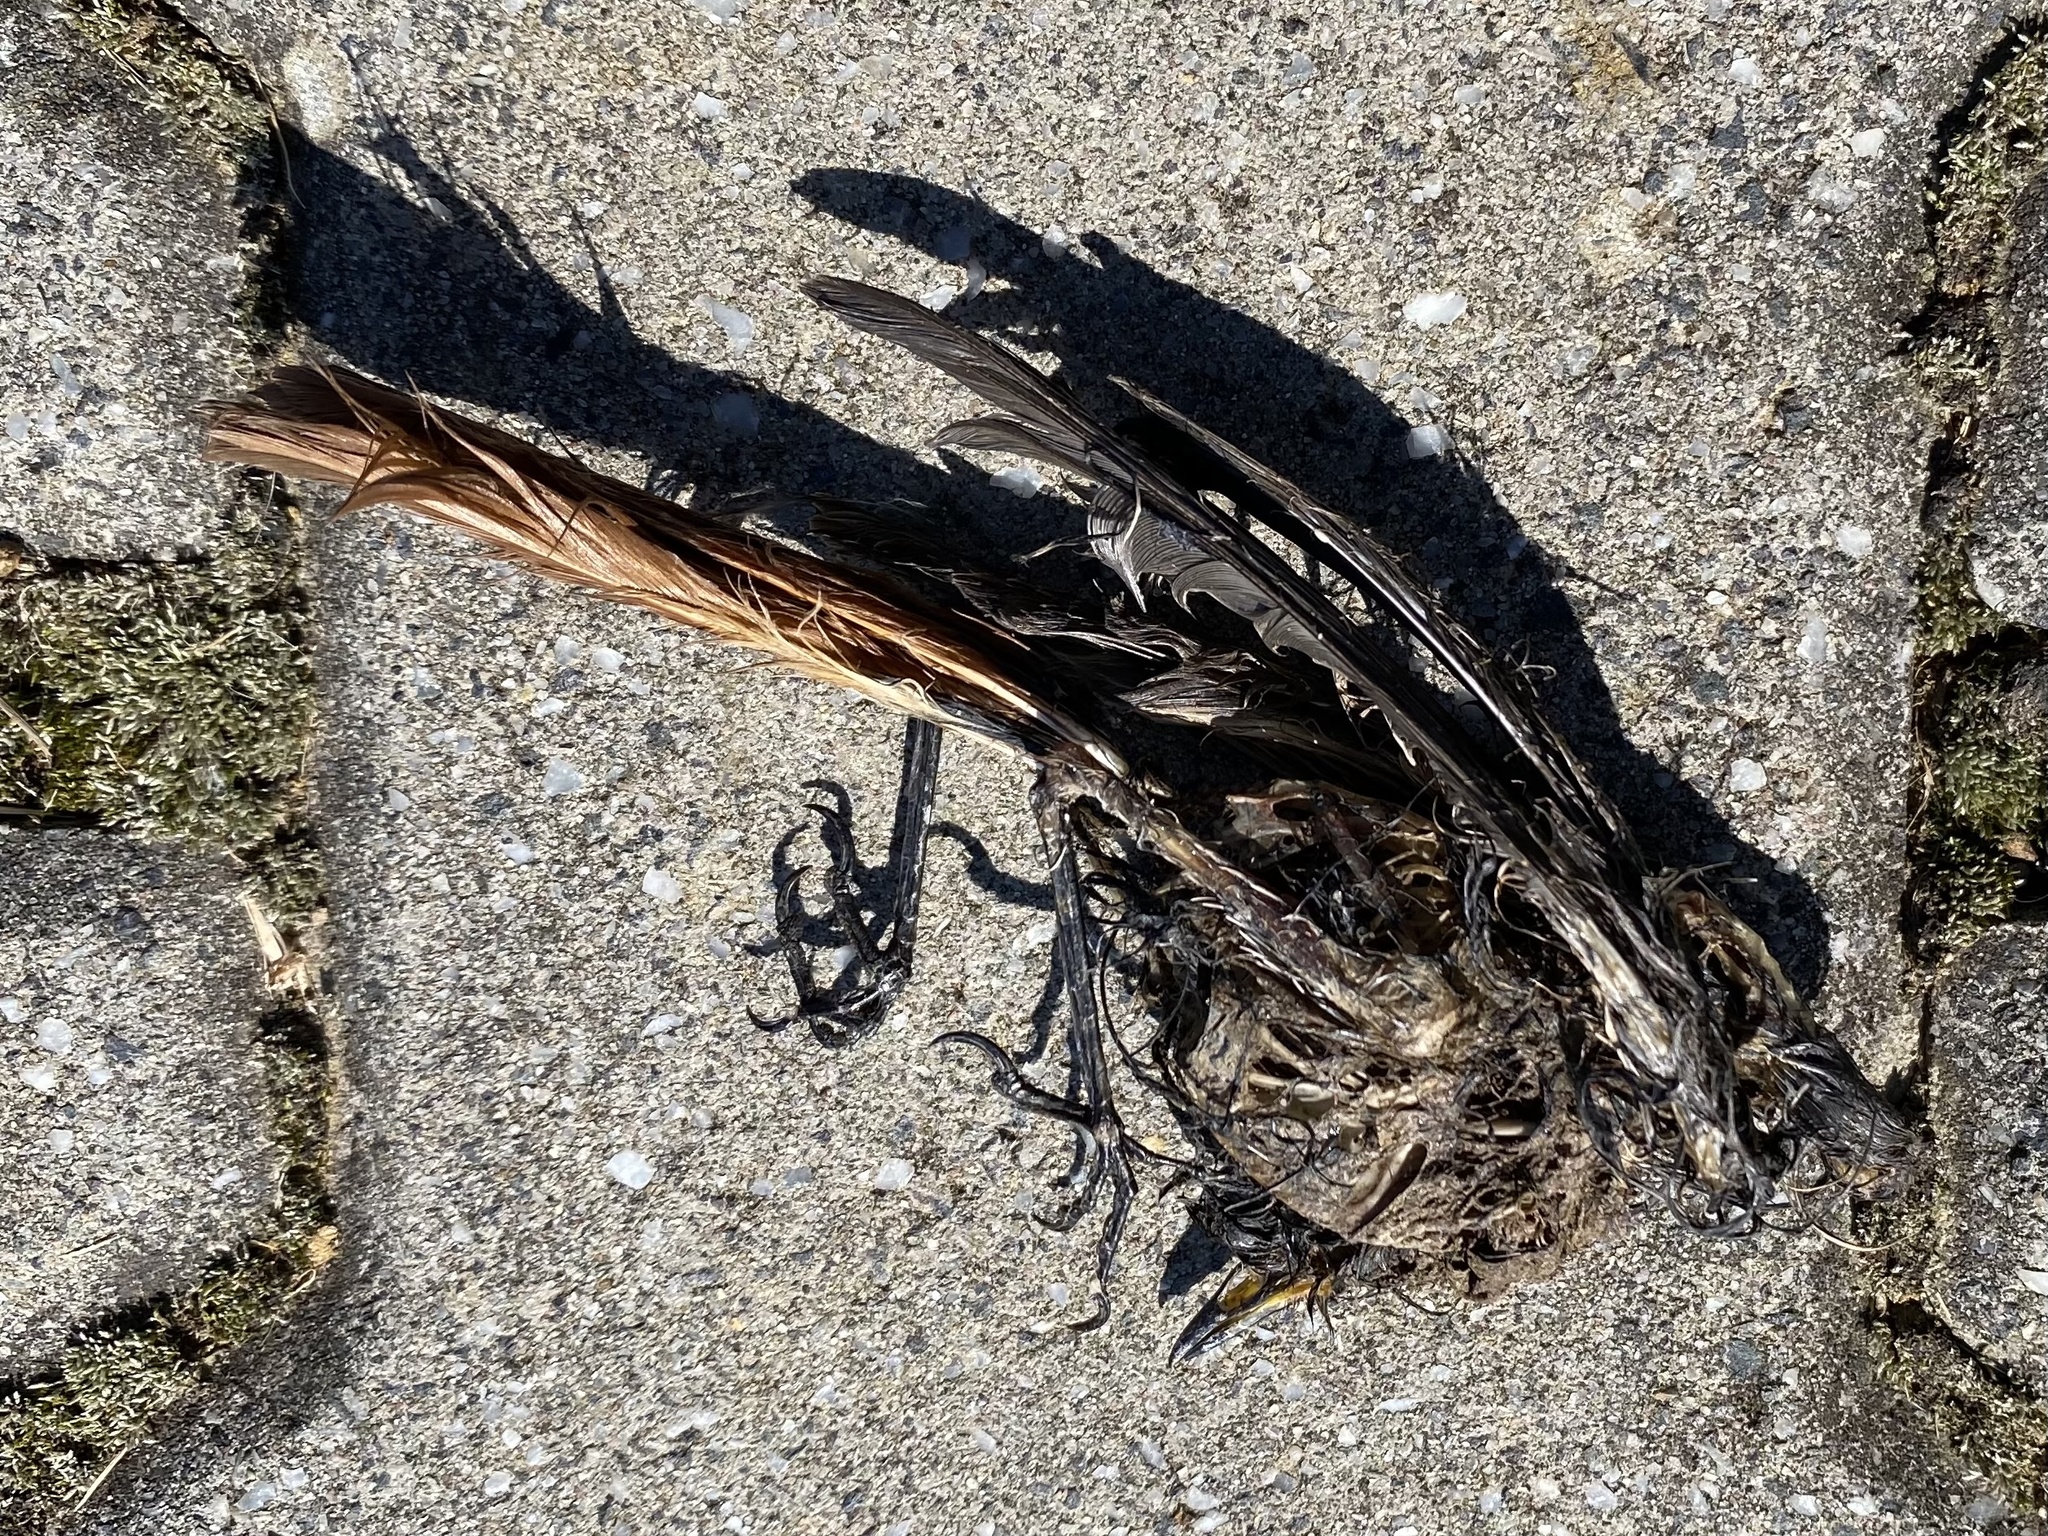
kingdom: Animalia
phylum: Chordata
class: Aves
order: Passeriformes
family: Muscicapidae
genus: Phoenicurus
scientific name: Phoenicurus ochruros
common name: Black redstart
